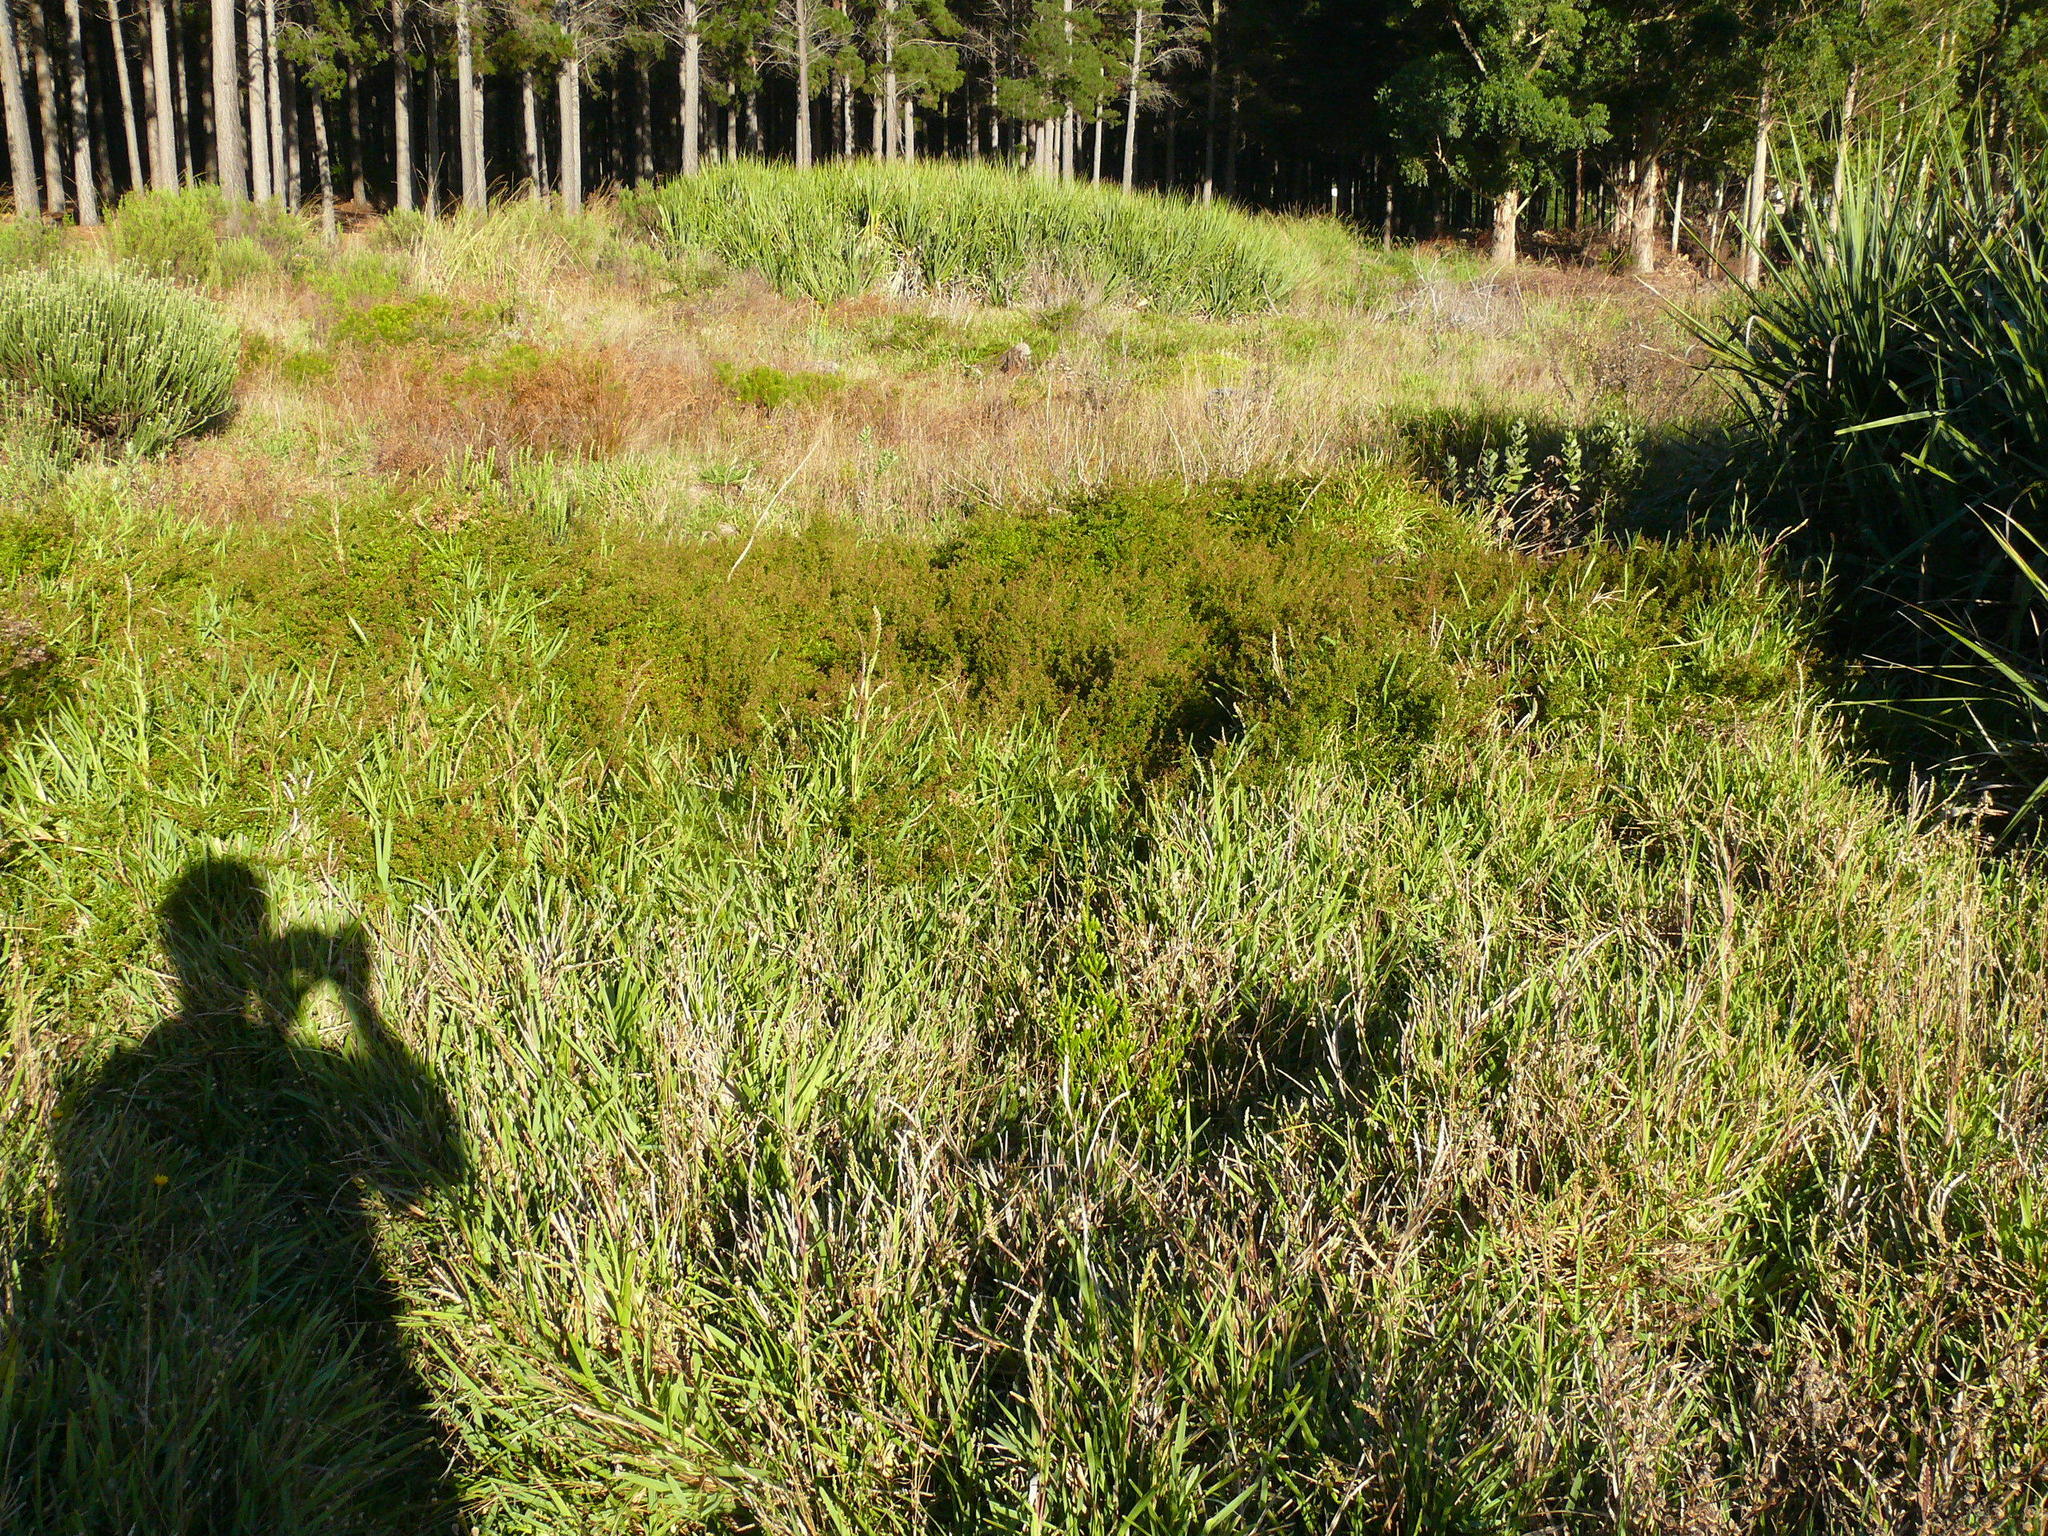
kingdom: Plantae
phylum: Tracheophyta
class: Magnoliopsida
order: Rosales
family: Rosaceae
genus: Cliffortia
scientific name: Cliffortia ferruginea
